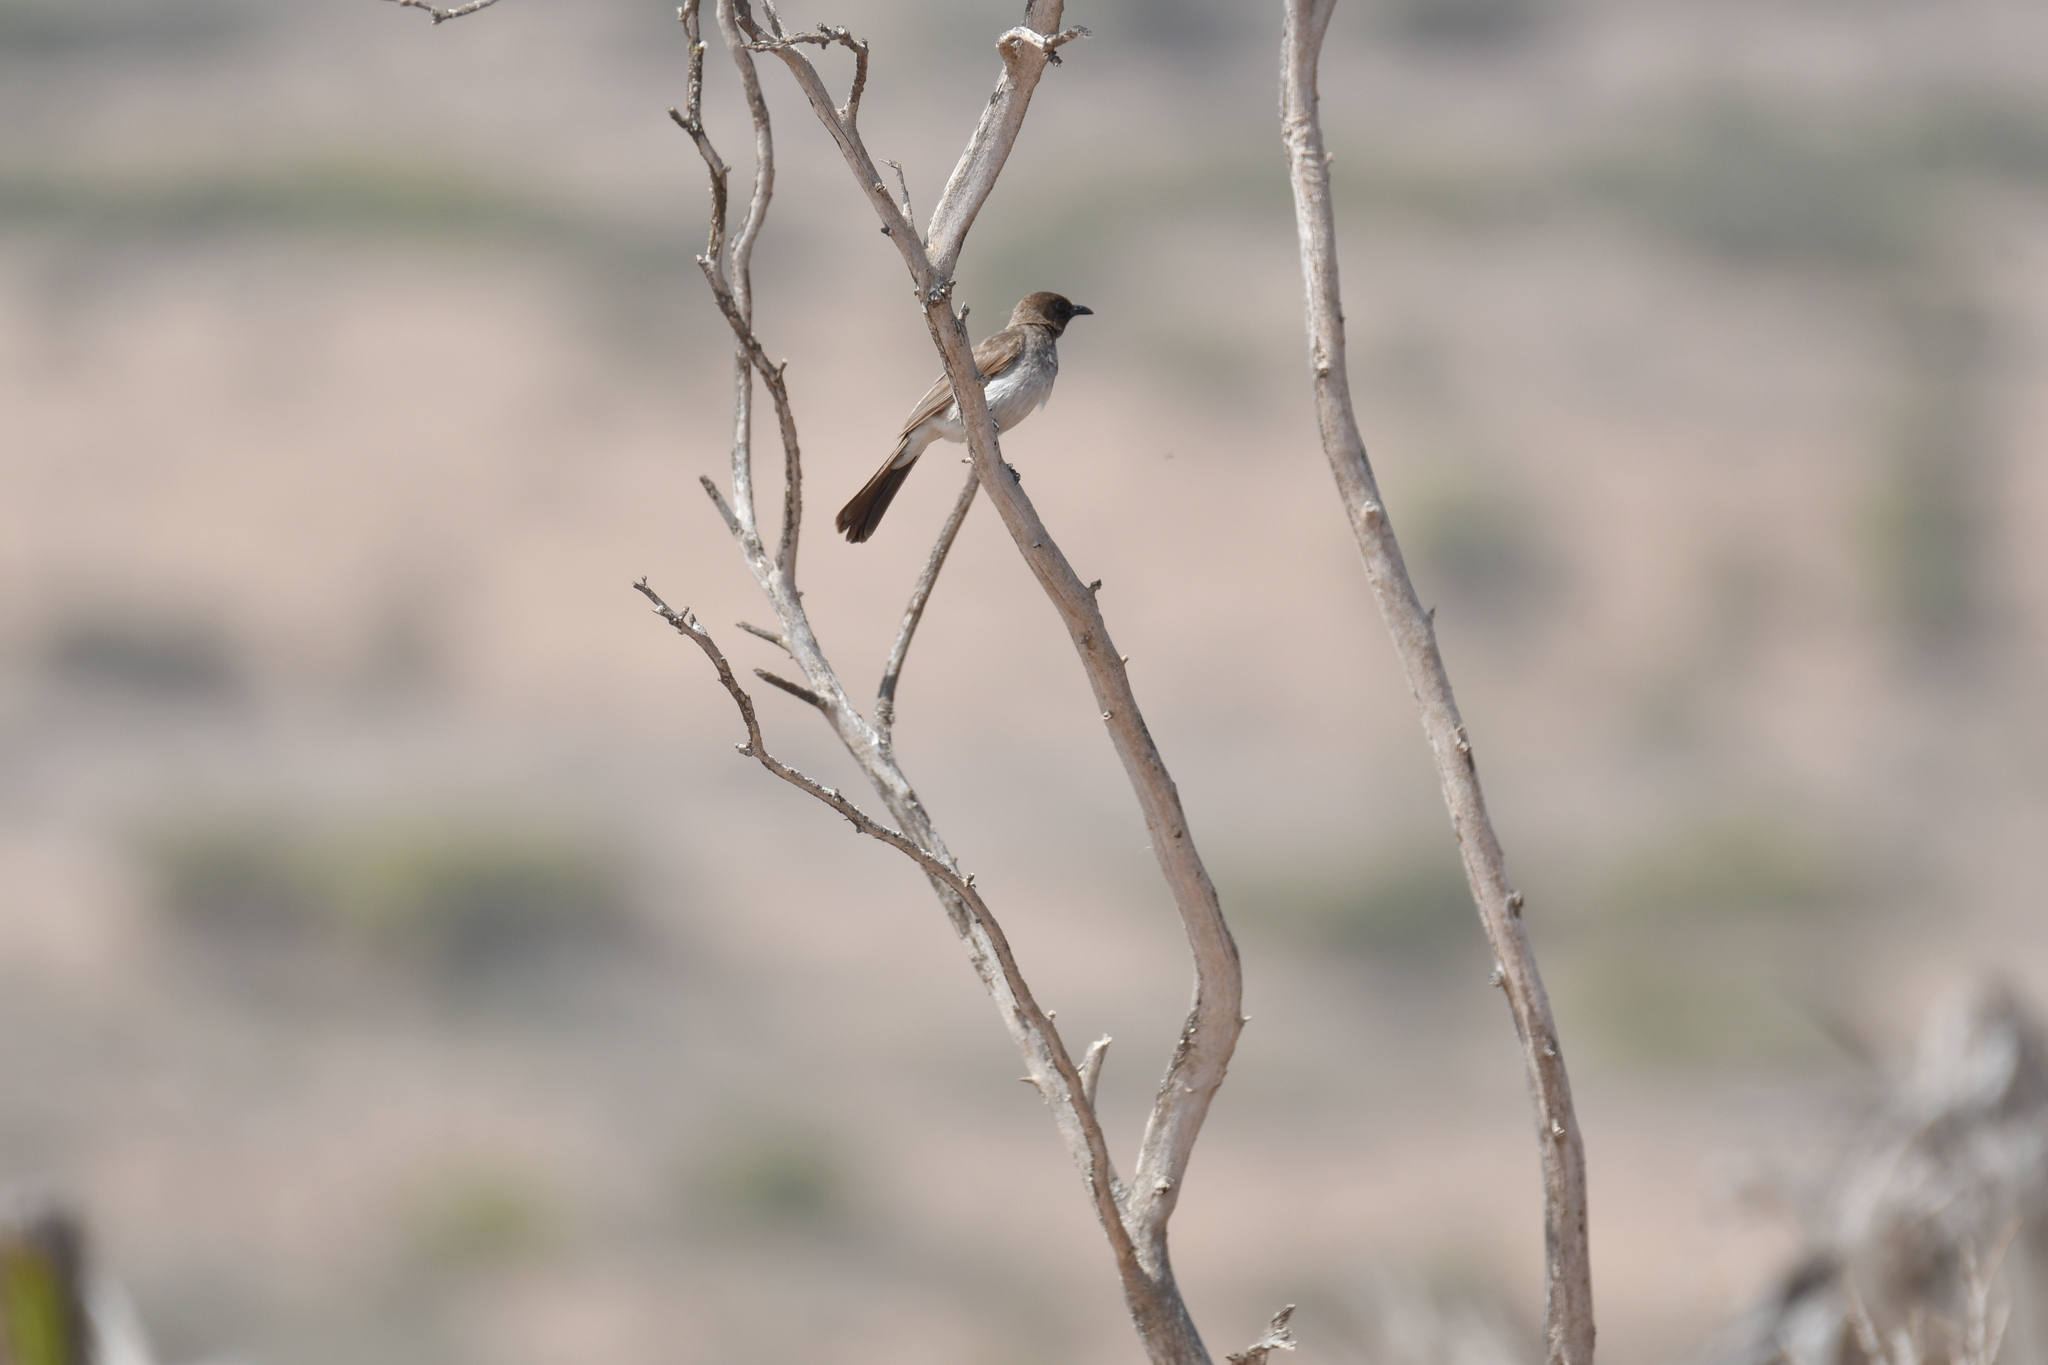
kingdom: Animalia
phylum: Chordata
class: Aves
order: Passeriformes
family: Pycnonotidae
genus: Pycnonotus
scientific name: Pycnonotus barbatus
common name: Common bulbul
